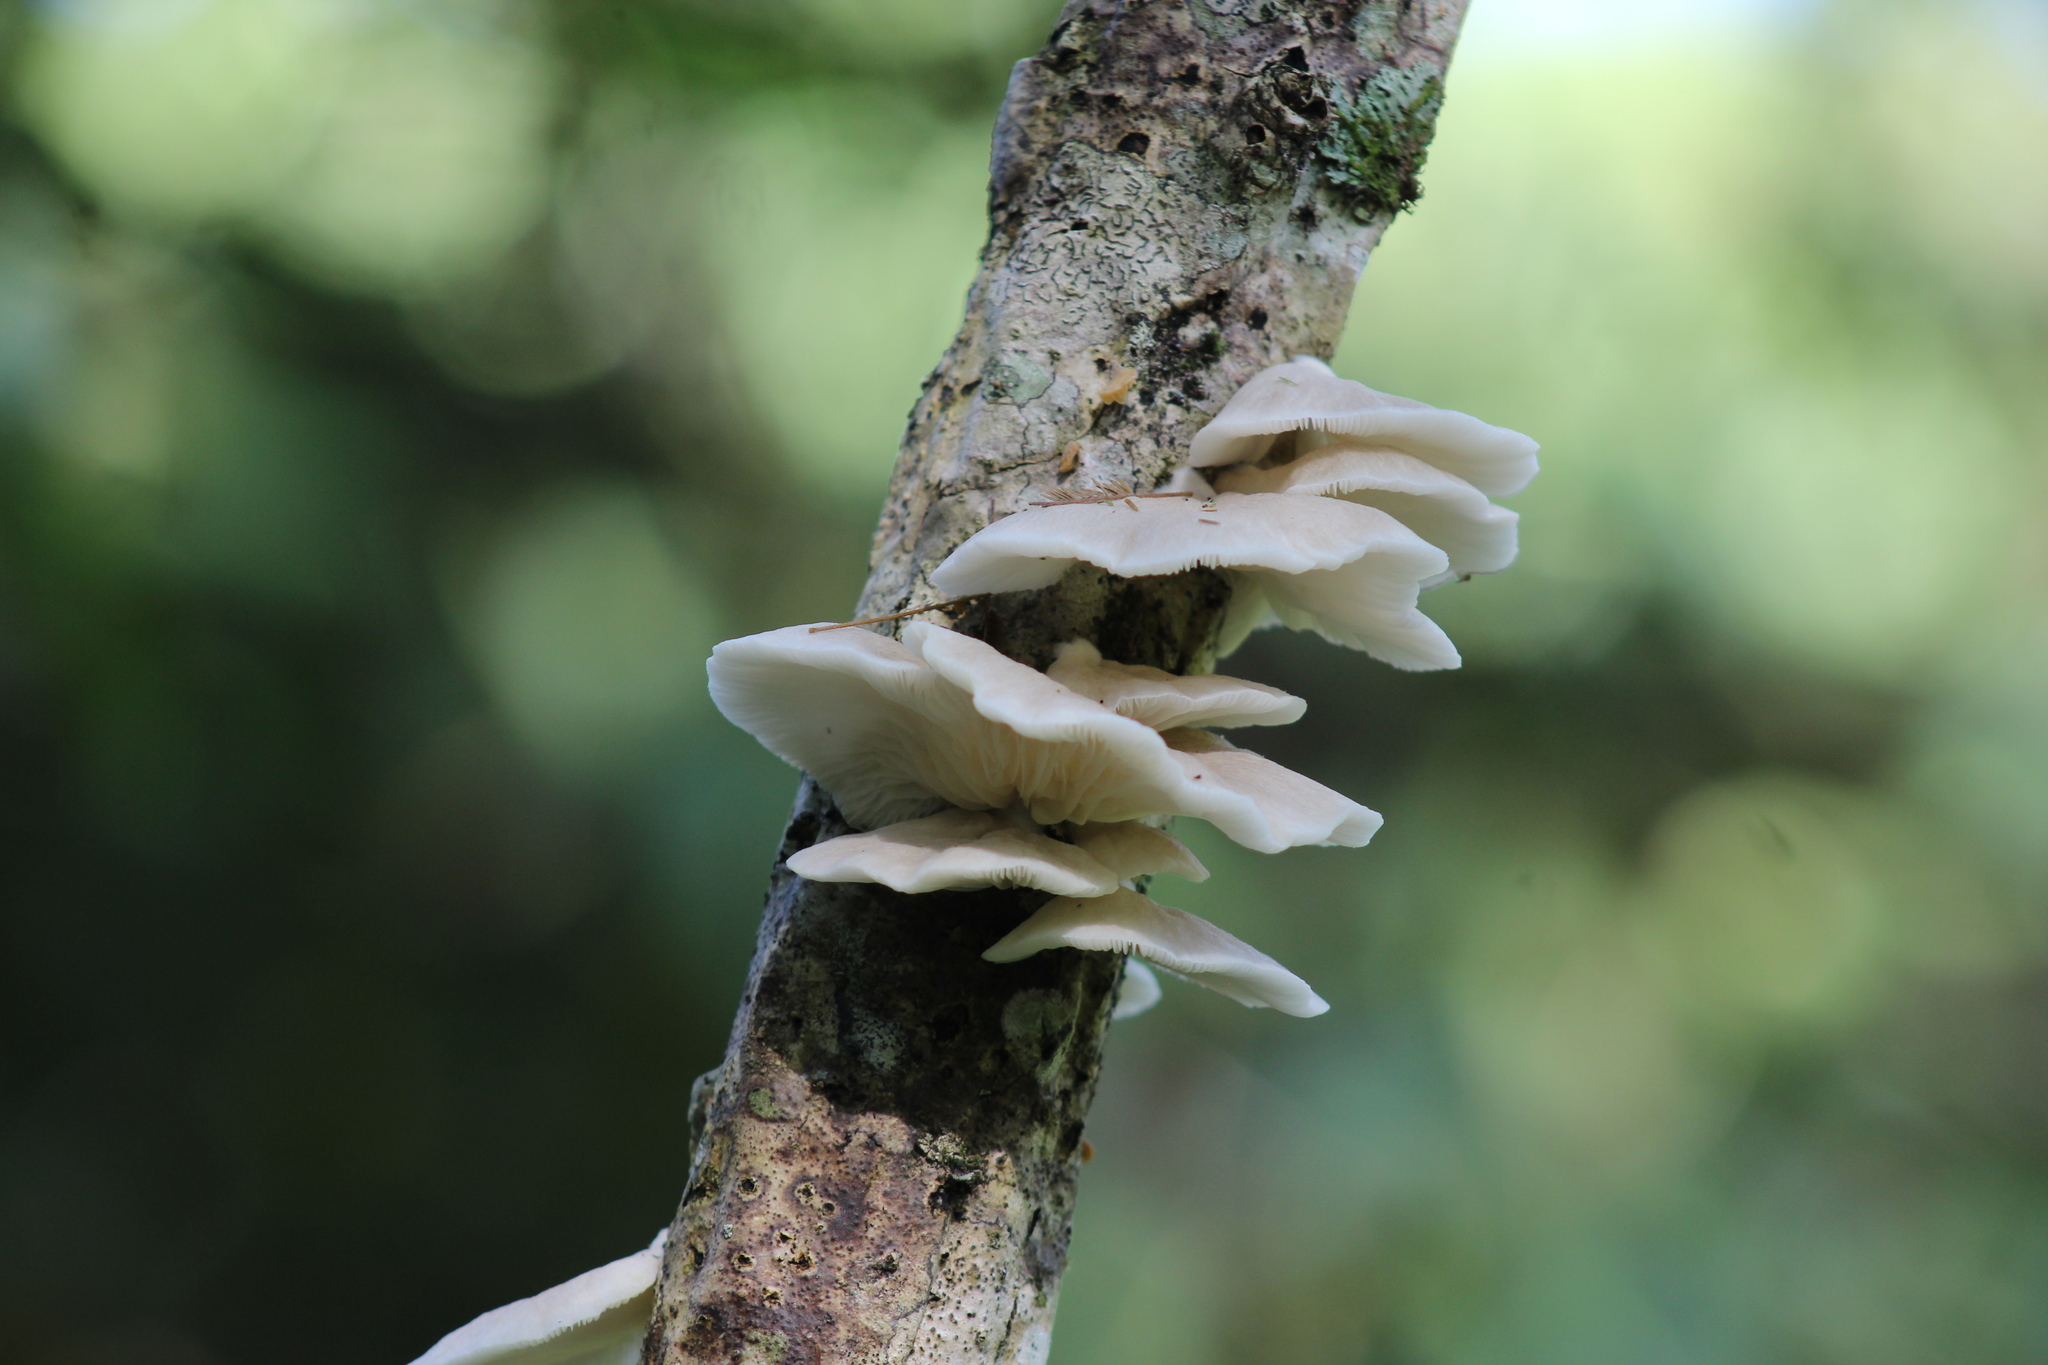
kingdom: Fungi
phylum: Basidiomycota
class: Agaricomycetes
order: Agaricales
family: Pleurotaceae
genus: Pleurotus
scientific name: Pleurotus ostreatus
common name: Oyster mushroom
